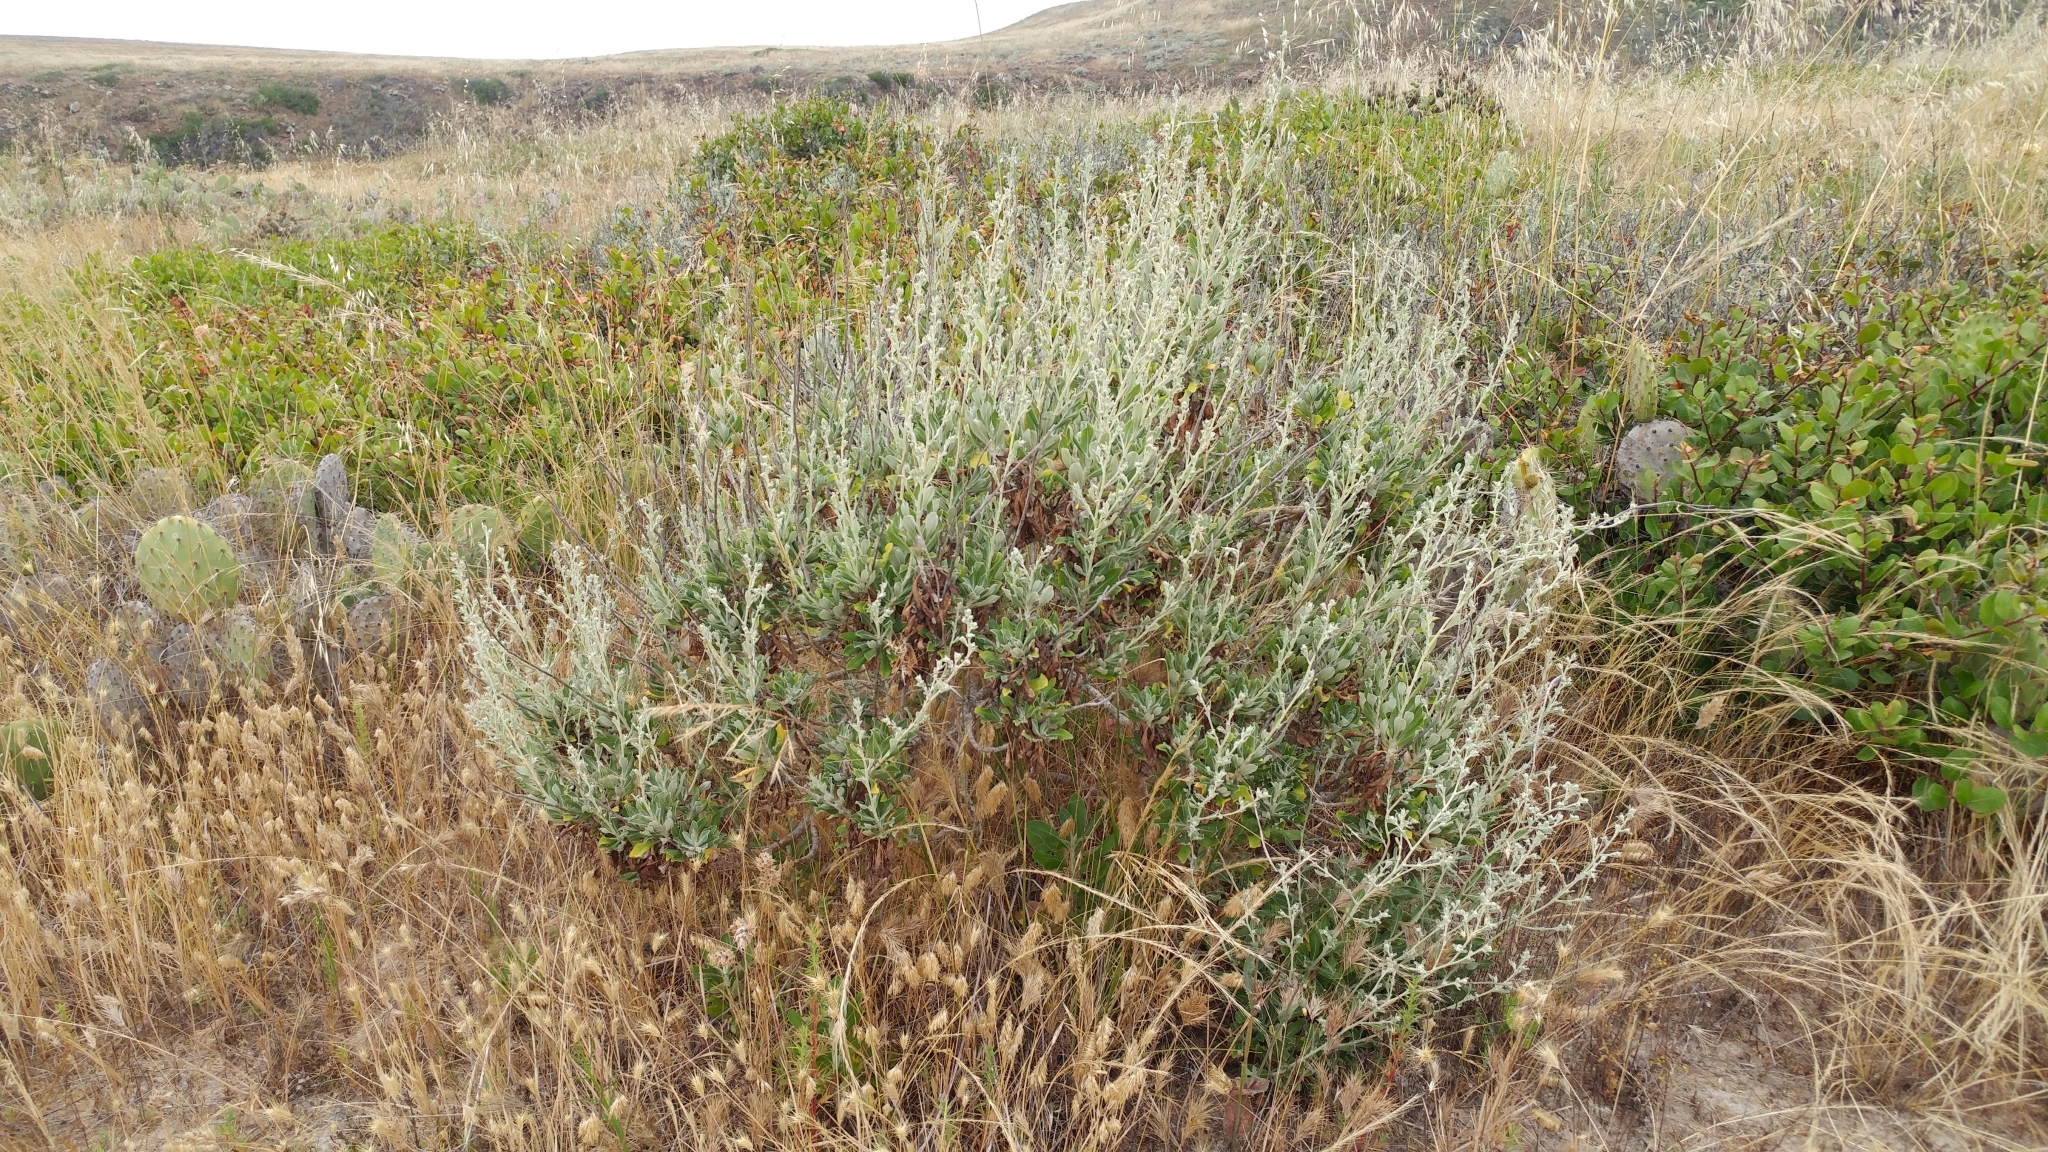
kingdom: Plantae
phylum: Tracheophyta
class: Magnoliopsida
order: Asterales
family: Asteraceae
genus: Hazardia
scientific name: Hazardia cana
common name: San clemente island bristleweed
